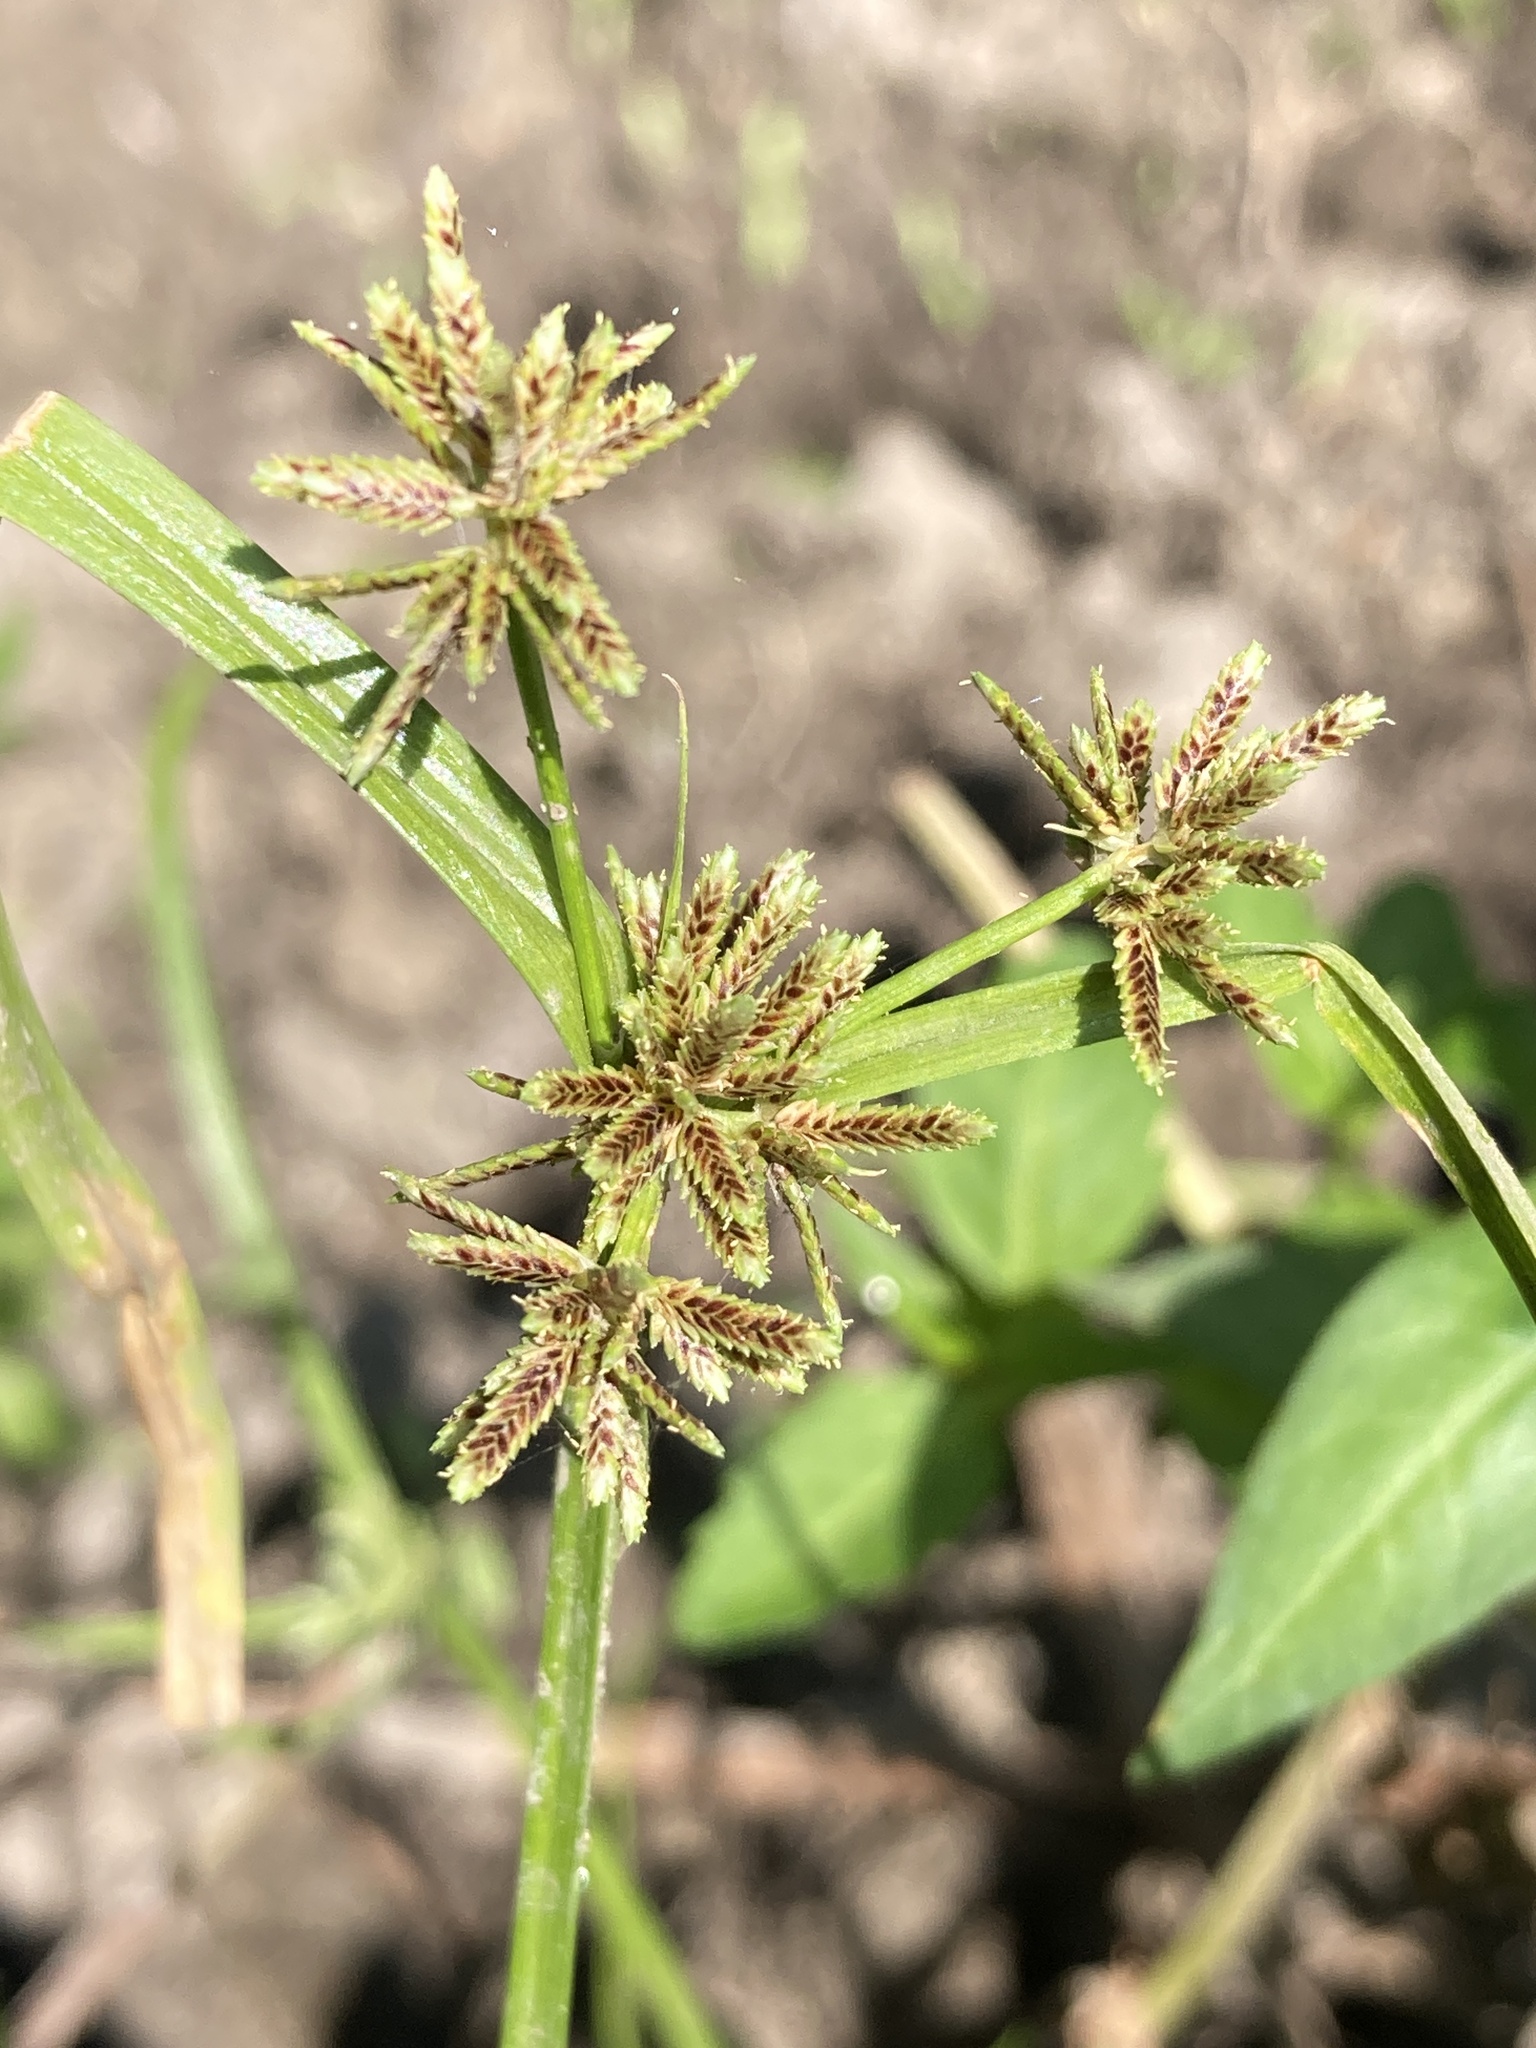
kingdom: Plantae
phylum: Tracheophyta
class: Liliopsida
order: Poales
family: Cyperaceae
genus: Cyperus
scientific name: Cyperus fuscus
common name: Brown galingale
